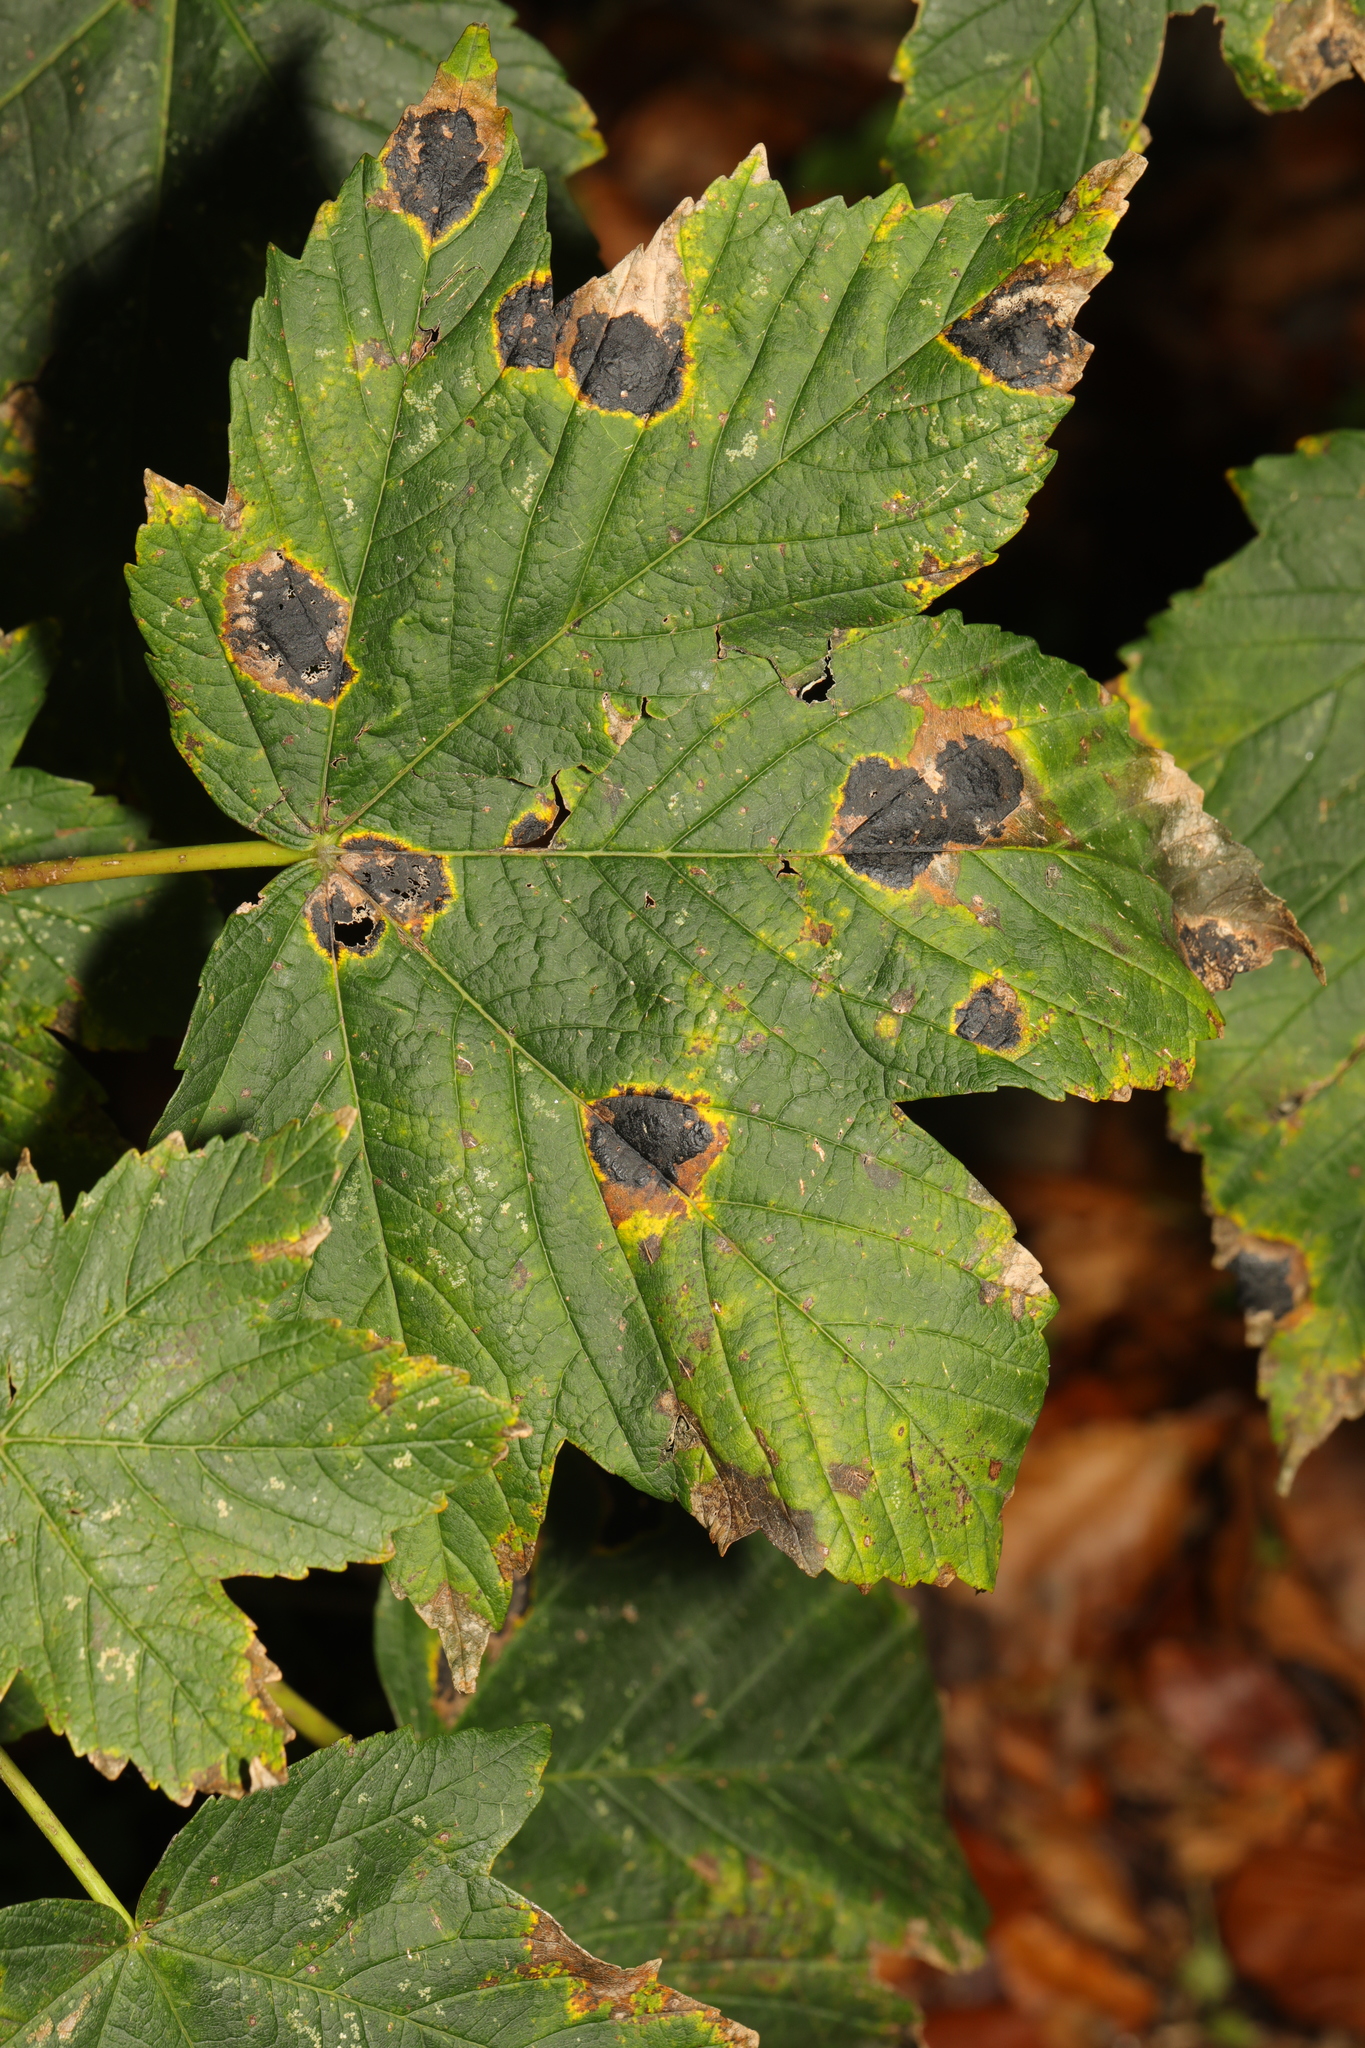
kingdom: Plantae
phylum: Tracheophyta
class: Magnoliopsida
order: Sapindales
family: Sapindaceae
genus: Acer
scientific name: Acer pseudoplatanus
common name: Sycamore
